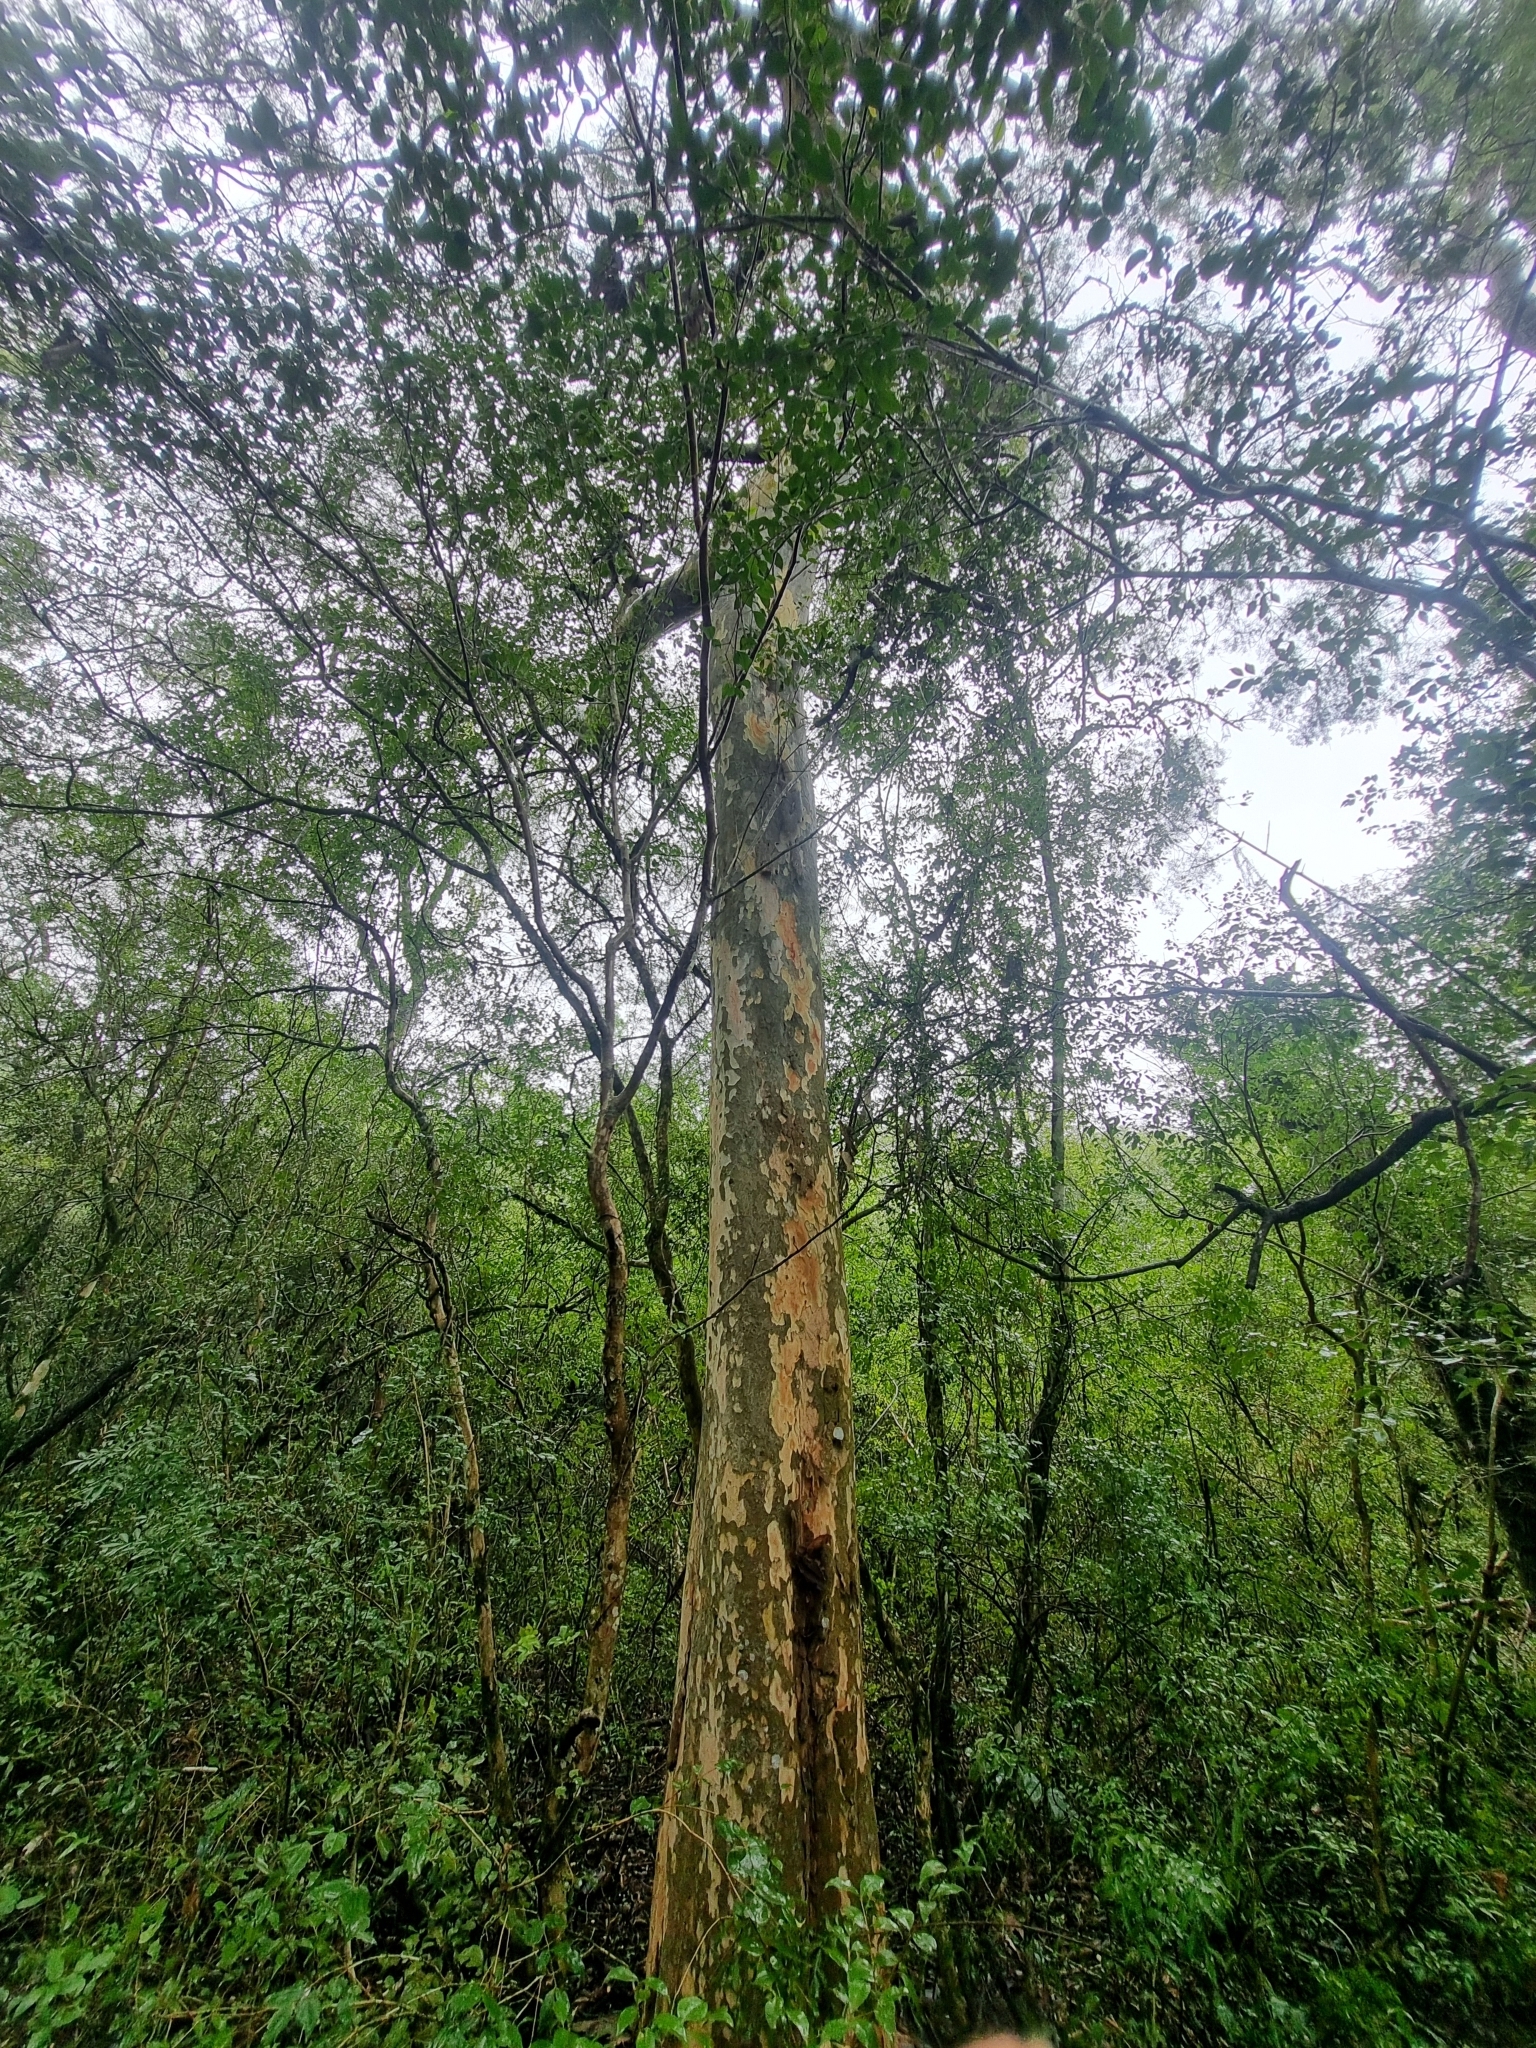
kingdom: Plantae
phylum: Tracheophyta
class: Magnoliopsida
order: Myrtales
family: Myrtaceae
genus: Myrcianthes
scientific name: Myrcianthes pungens
